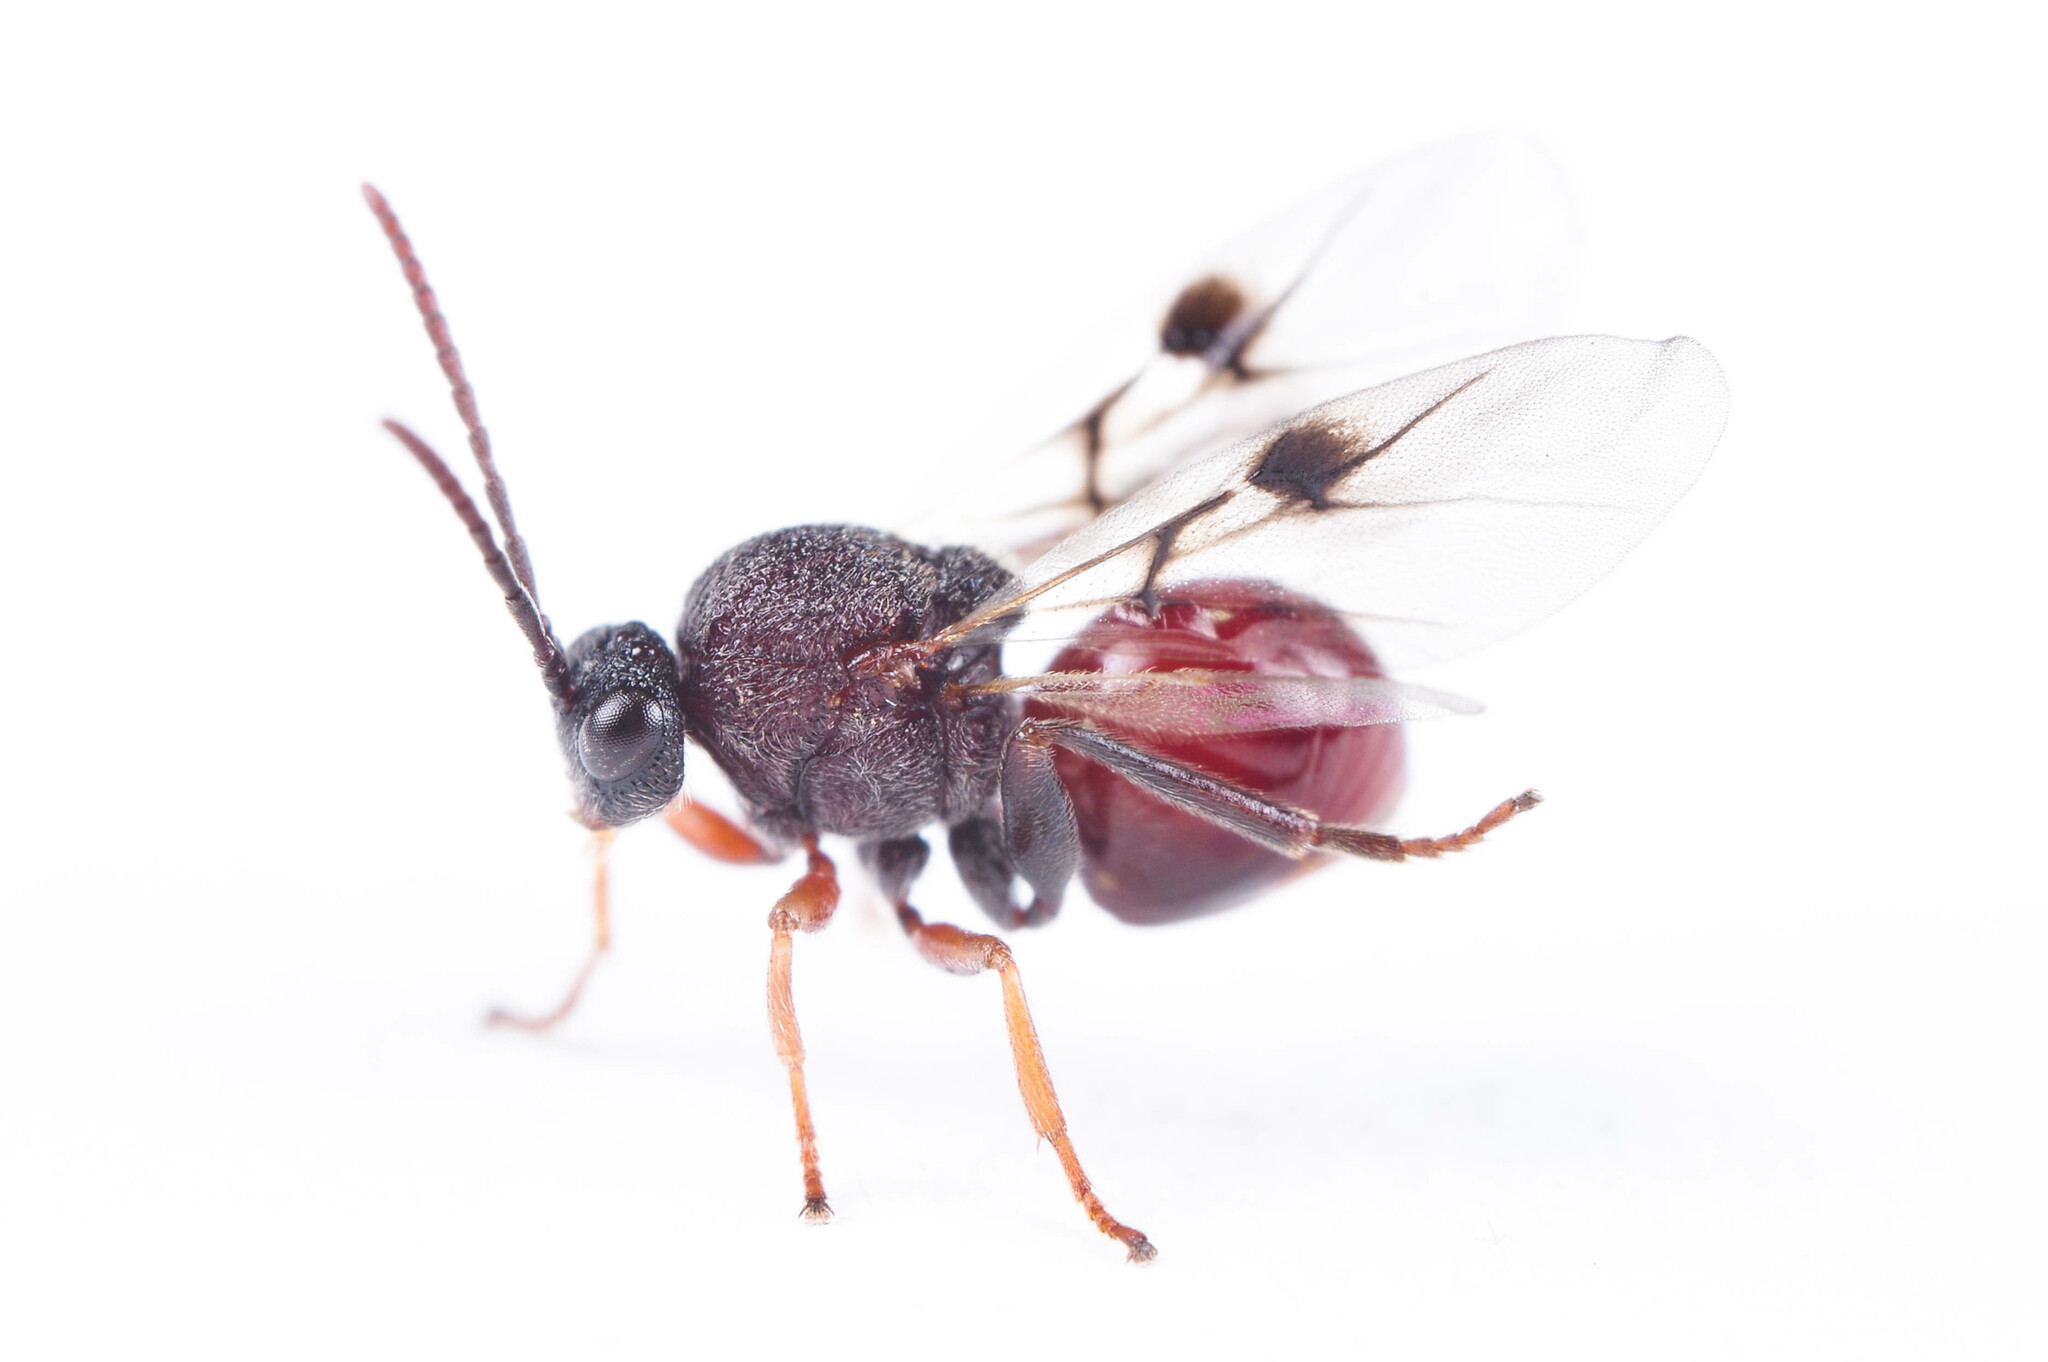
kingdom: Animalia
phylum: Arthropoda
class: Insecta
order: Hymenoptera
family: Cynipidae
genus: Amphibolips
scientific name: Amphibolips
